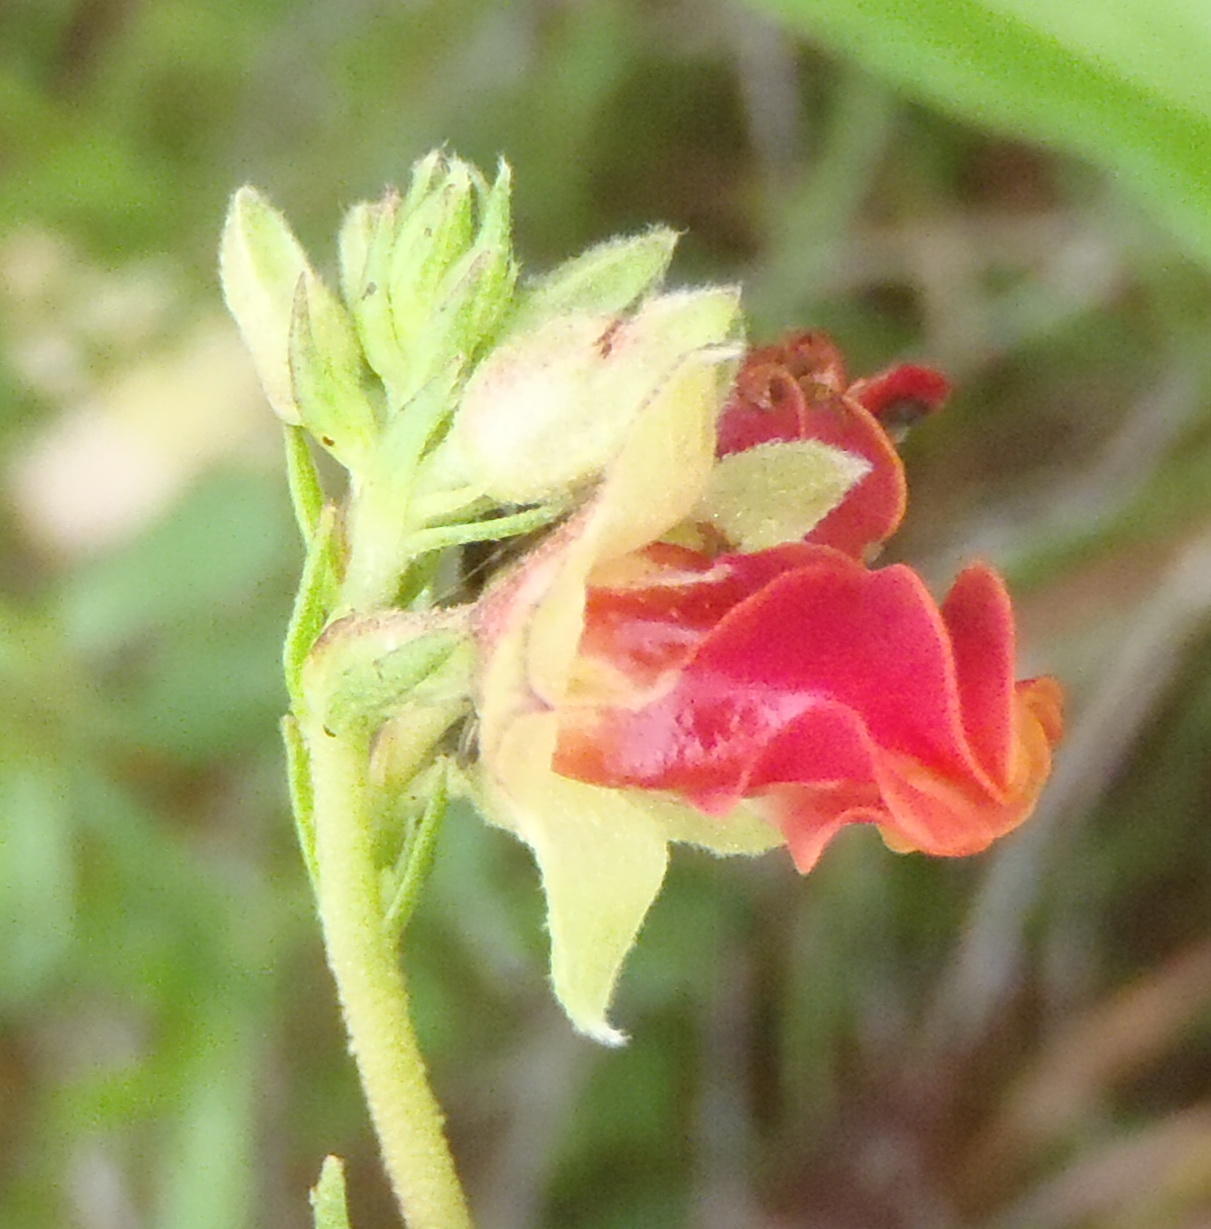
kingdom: Plantae
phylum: Tracheophyta
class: Magnoliopsida
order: Malvales
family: Malvaceae
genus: Hermannia
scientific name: Hermannia flammea
